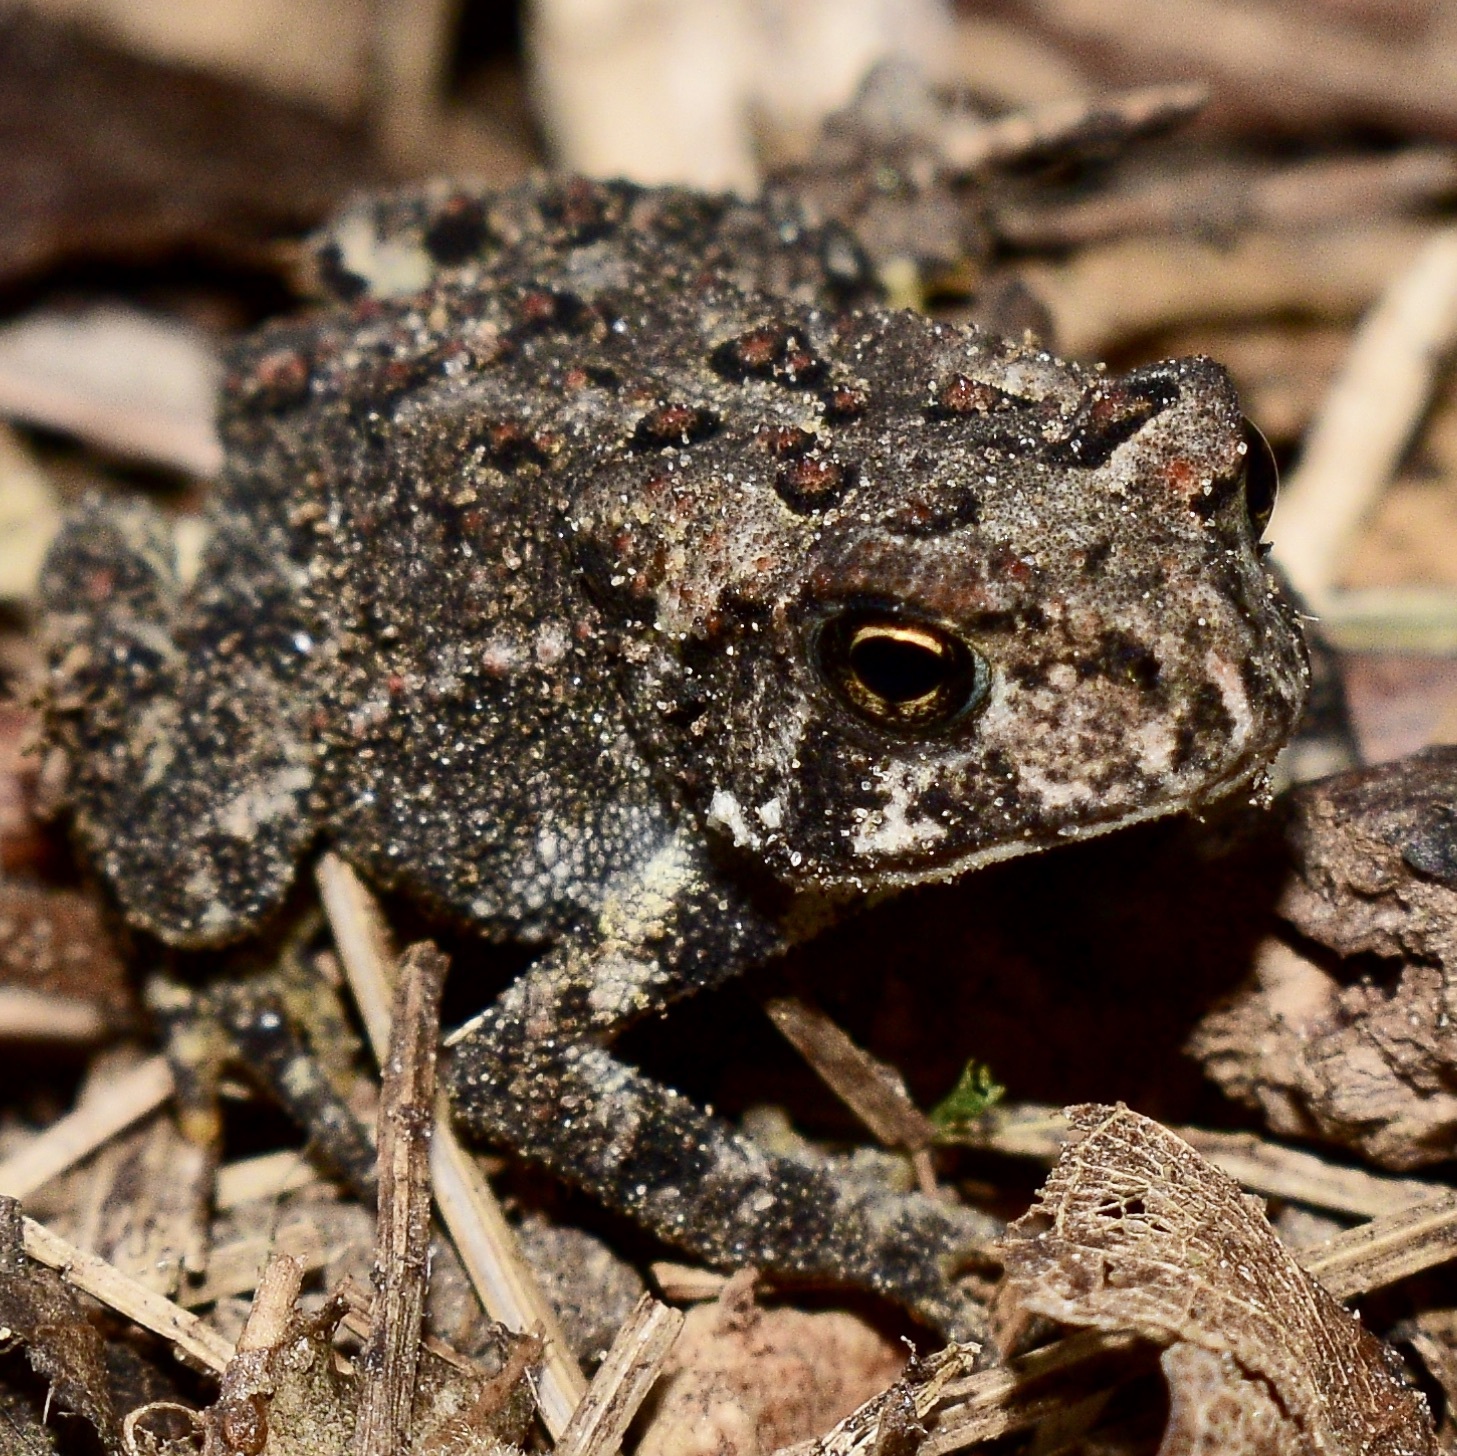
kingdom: Animalia
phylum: Chordata
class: Amphibia
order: Anura
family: Bufonidae
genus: Anaxyrus
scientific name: Anaxyrus americanus
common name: American toad
